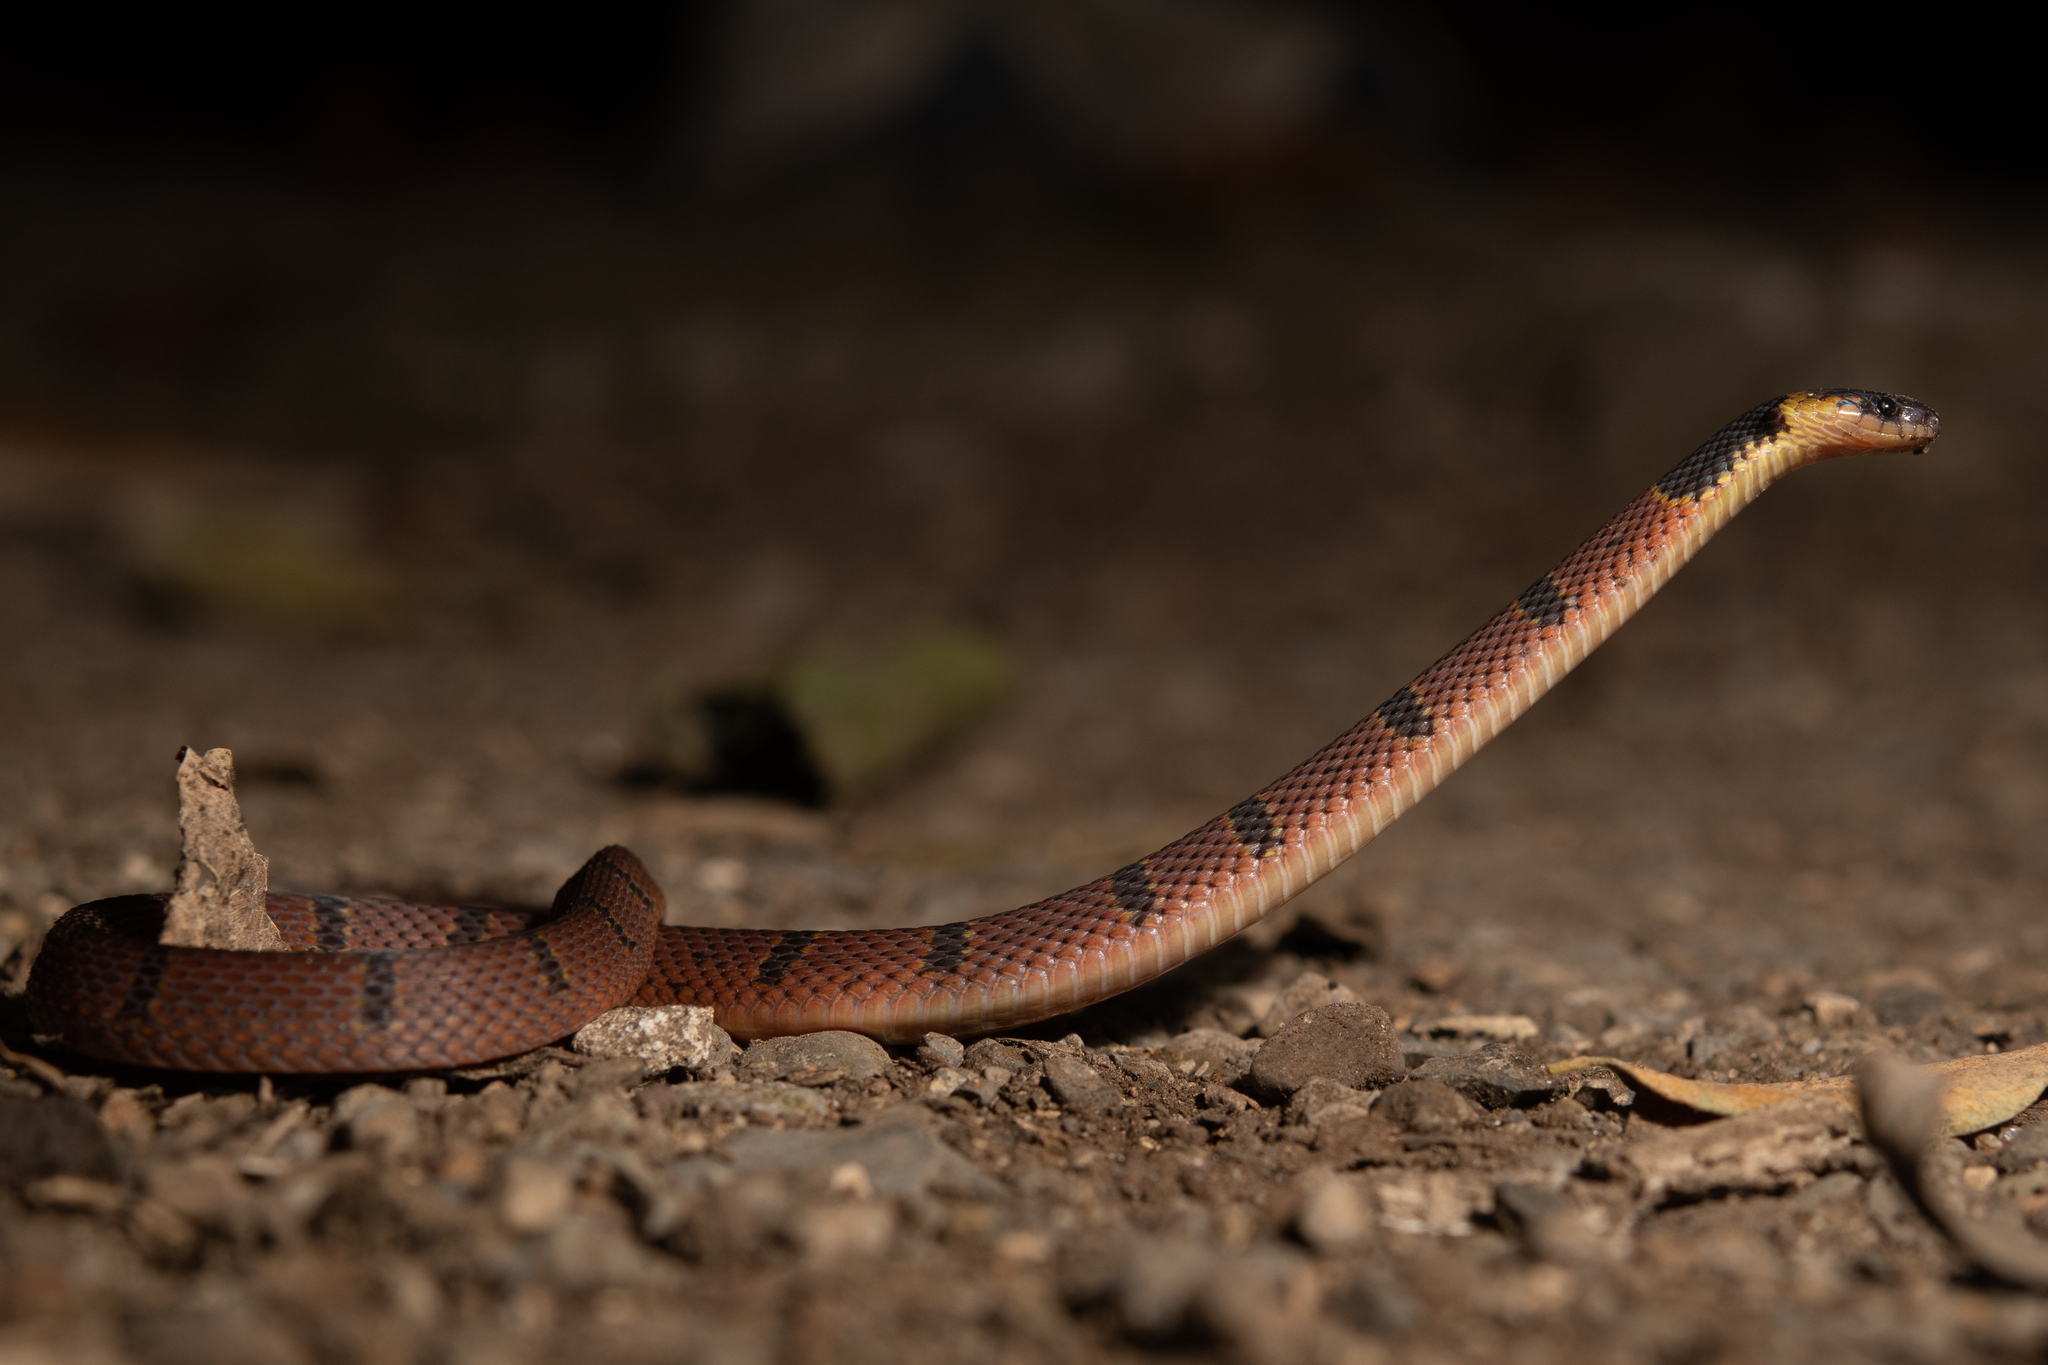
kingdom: Animalia
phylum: Chordata
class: Squamata
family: Colubridae
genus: Ninia
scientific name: Ninia sebae
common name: Redback coffee snake
